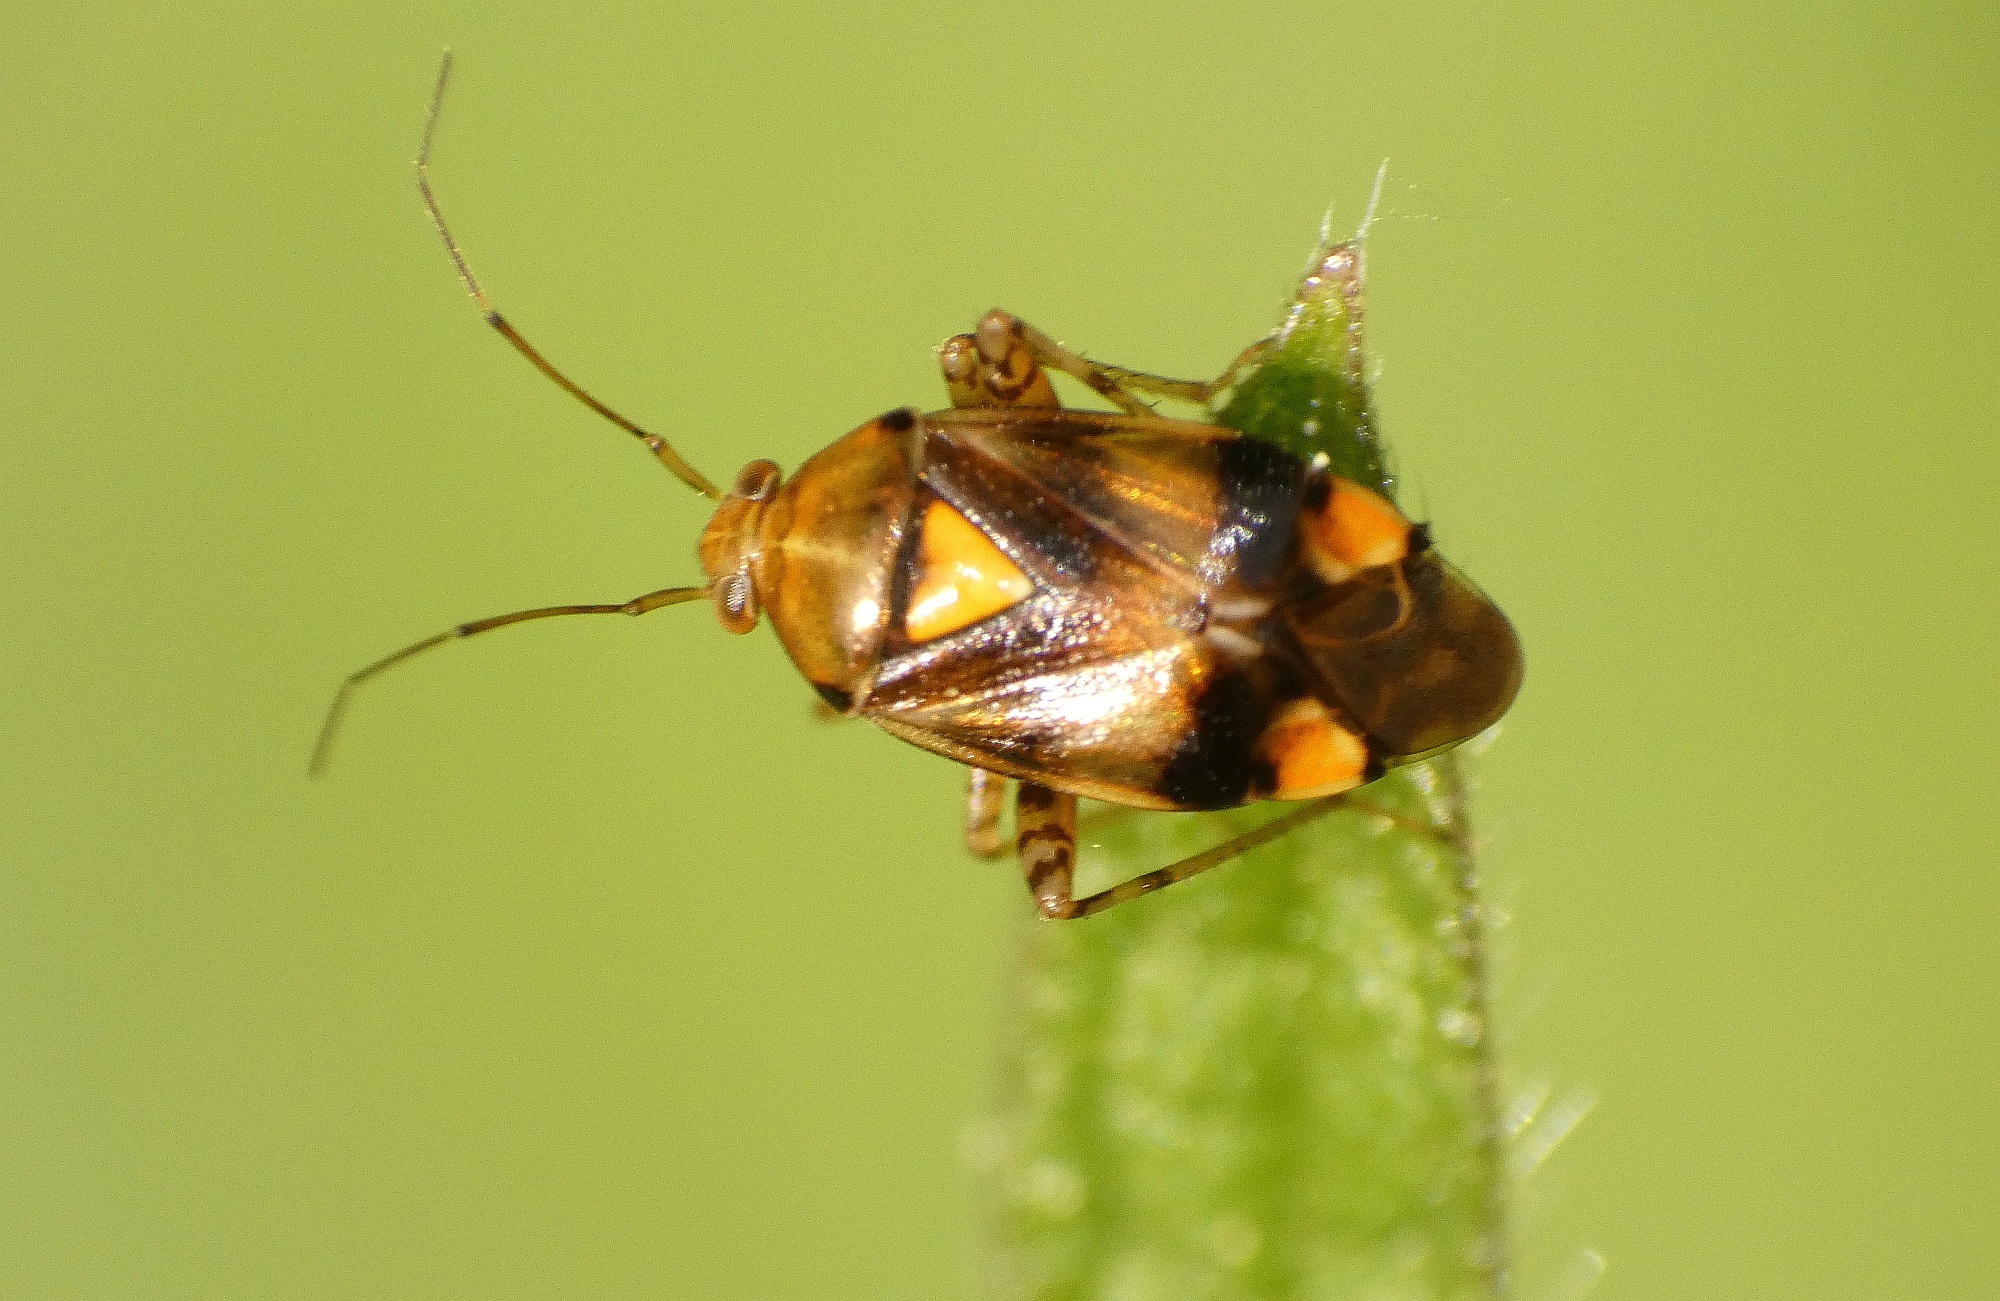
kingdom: Animalia
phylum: Arthropoda
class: Insecta
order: Hemiptera
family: Miridae
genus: Liocoris
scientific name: Liocoris tripustulatus
